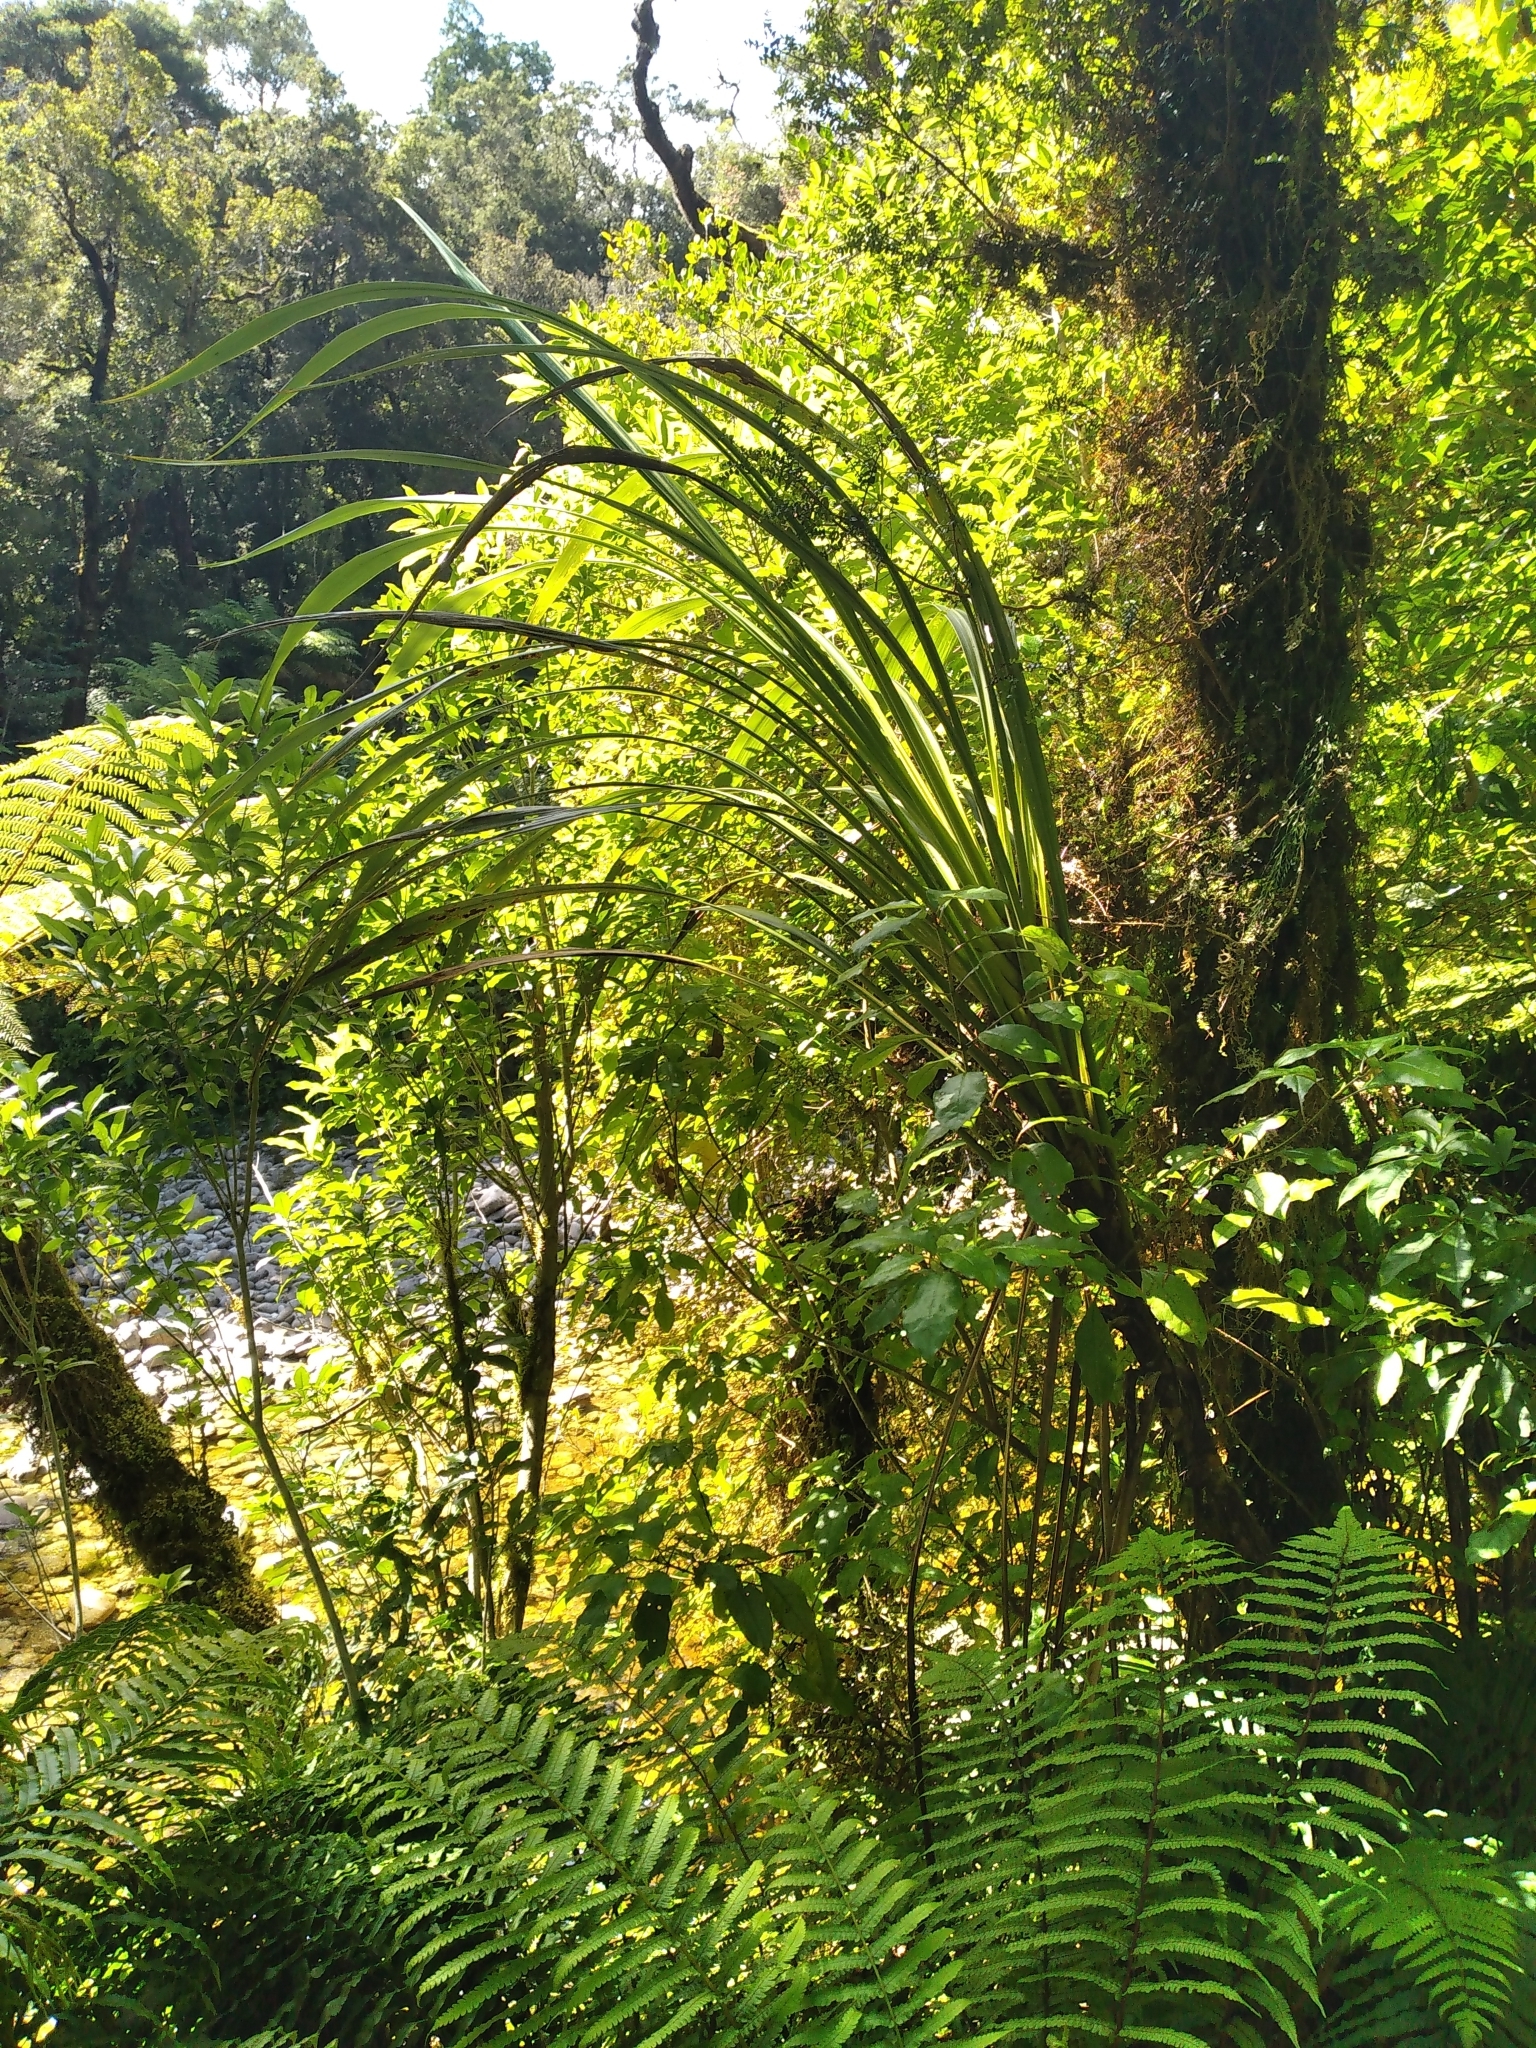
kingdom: Plantae
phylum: Tracheophyta
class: Liliopsida
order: Asparagales
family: Asparagaceae
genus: Cordyline
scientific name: Cordyline banksii
